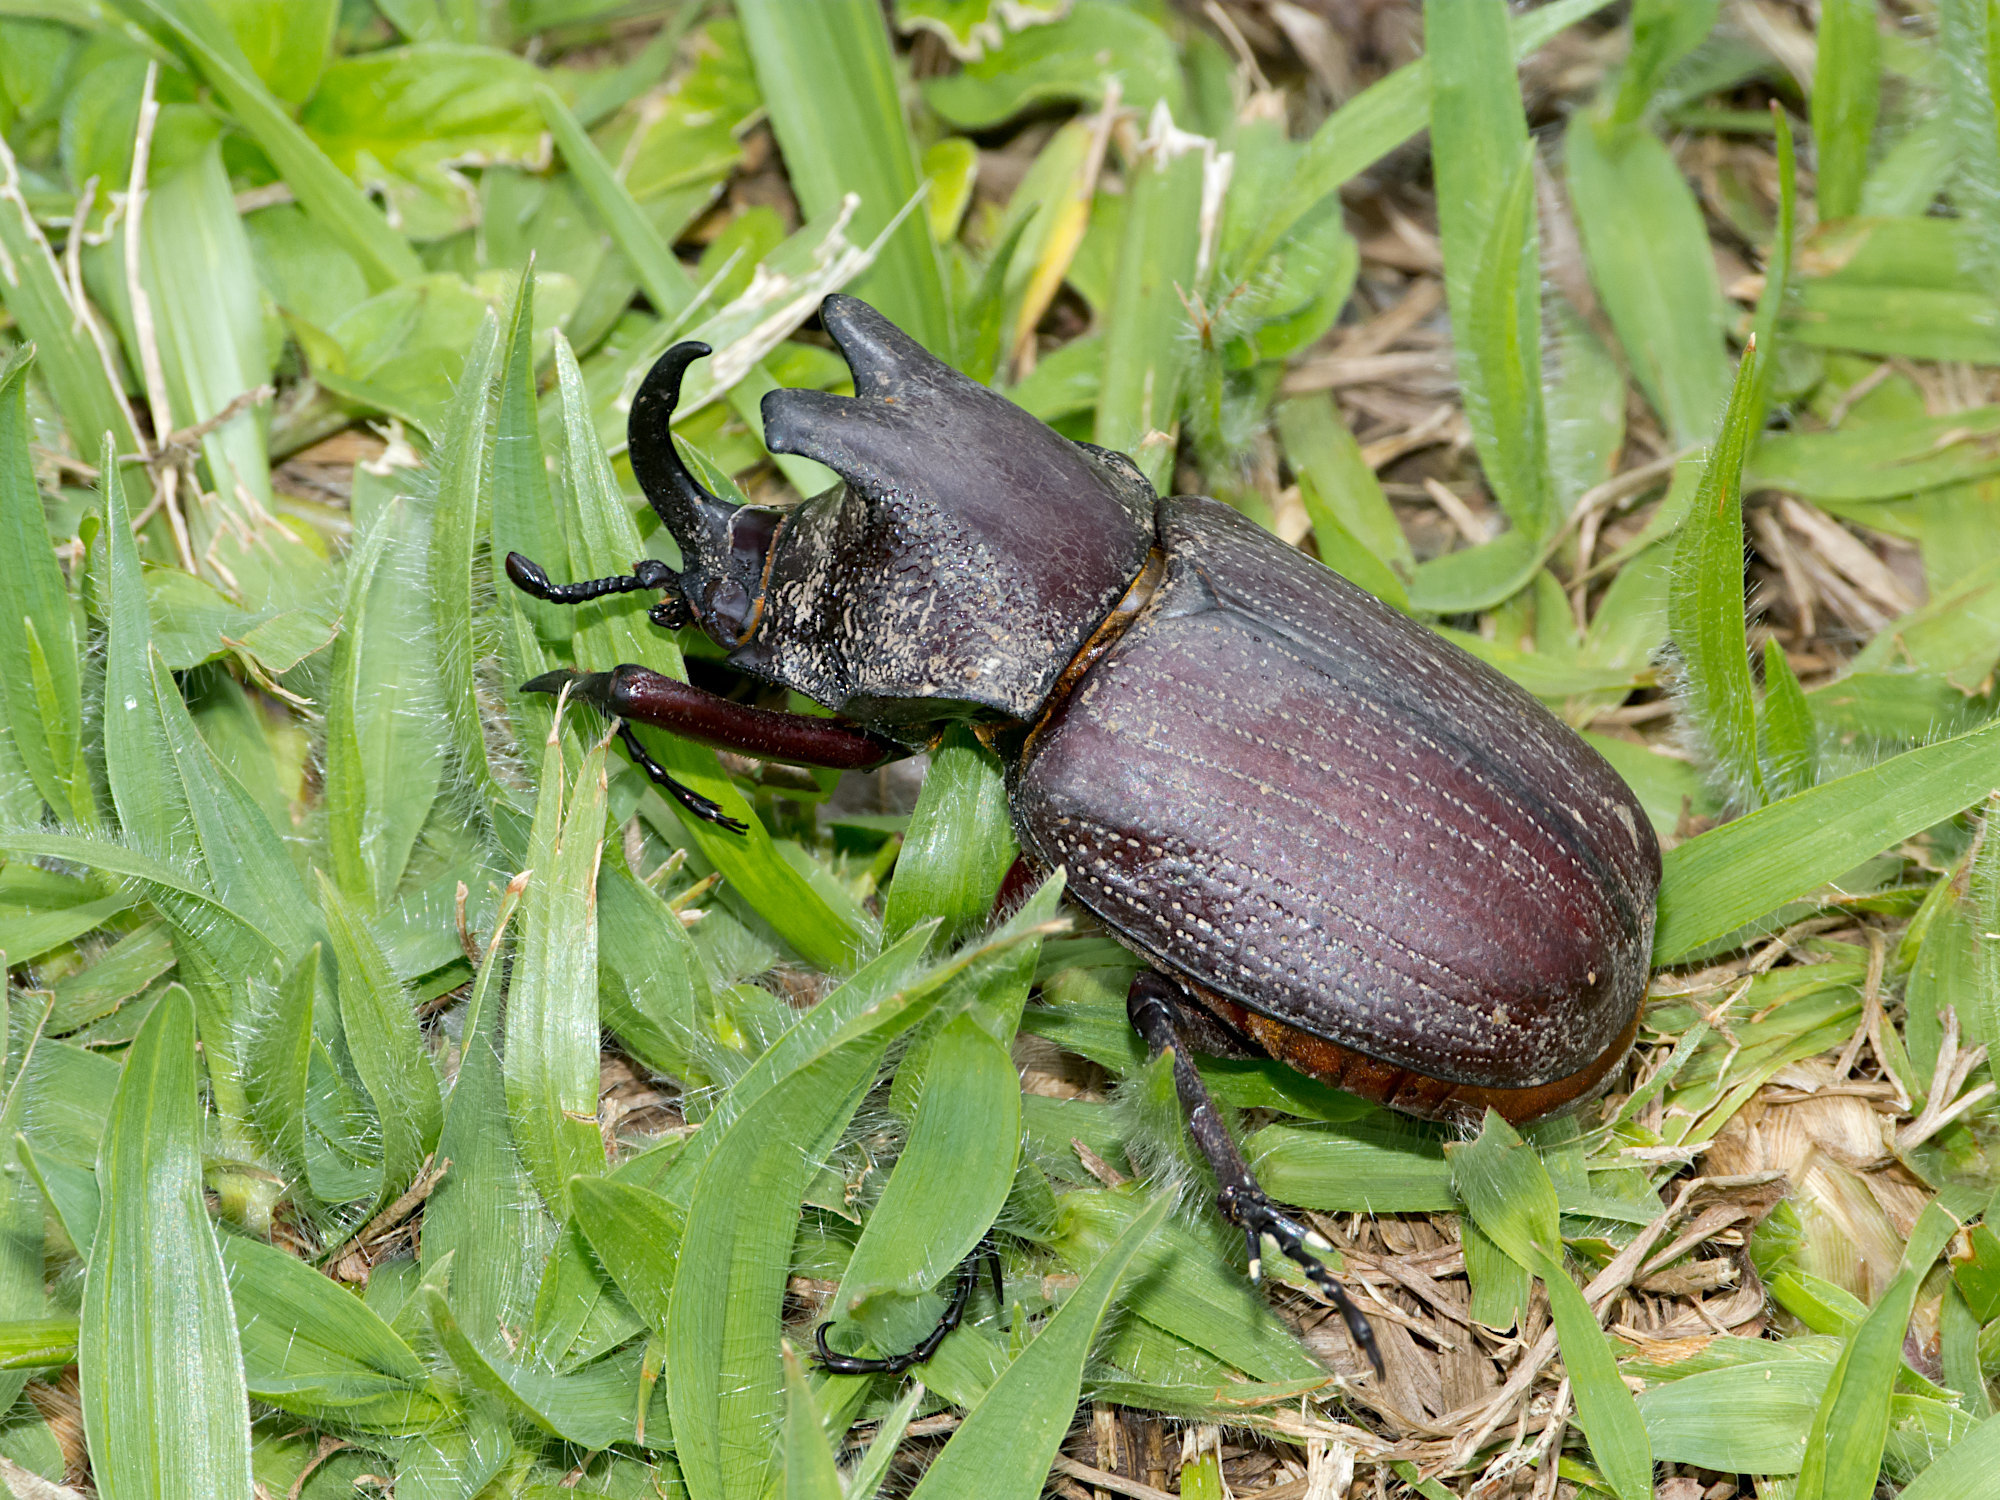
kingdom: Animalia
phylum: Arthropoda
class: Insecta
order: Coleoptera
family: Scarabaeidae
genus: Coelosis
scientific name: Coelosis biloba
